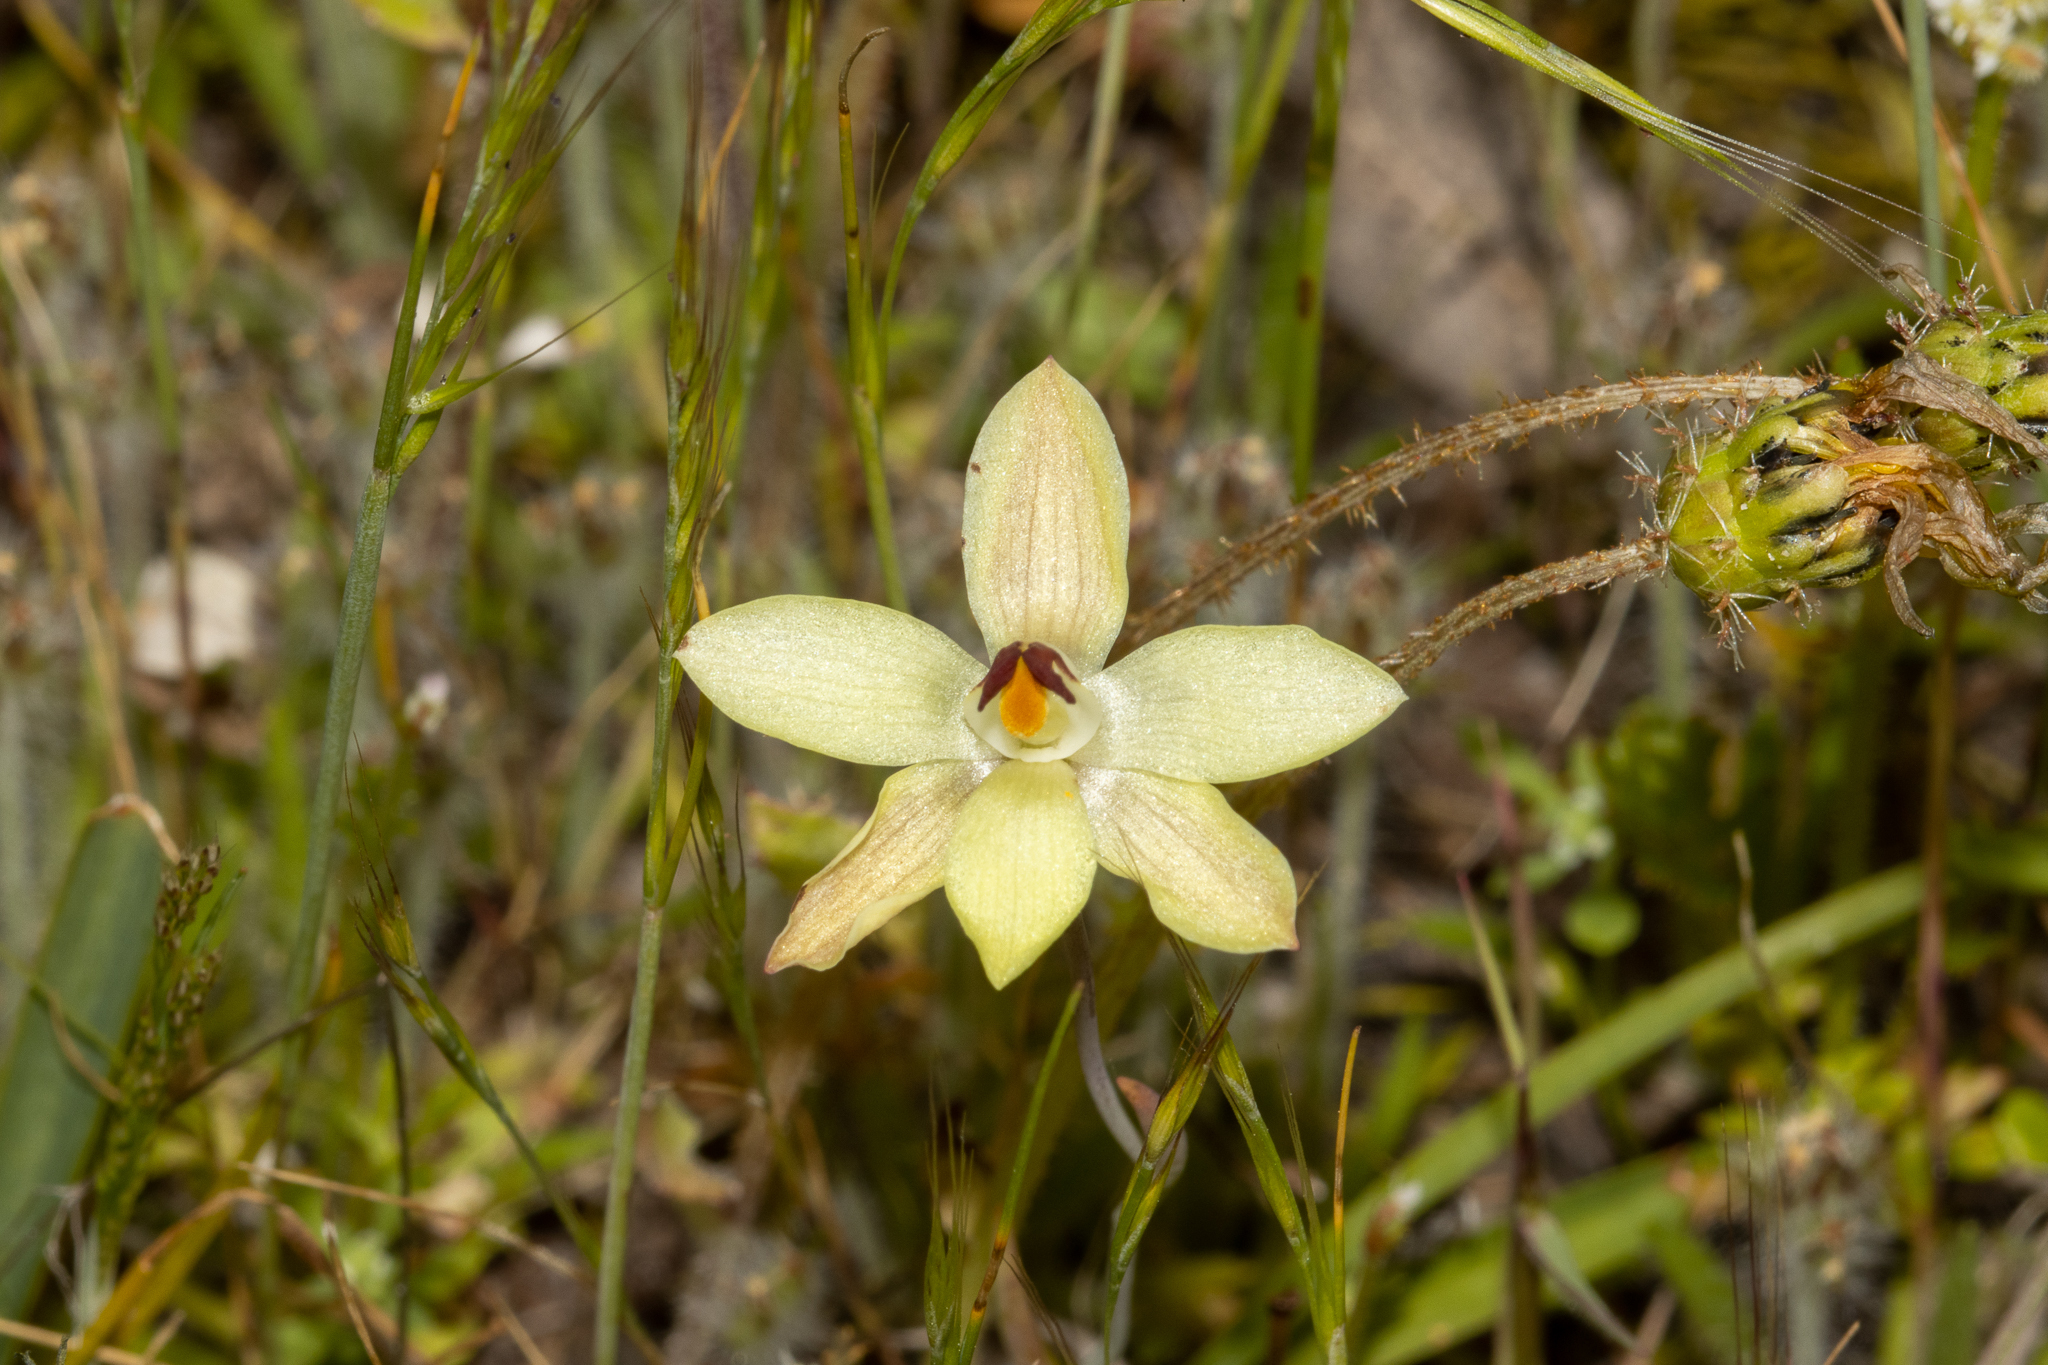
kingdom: Plantae
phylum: Tracheophyta
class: Liliopsida
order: Asparagales
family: Orchidaceae
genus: Thelymitra
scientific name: Thelymitra antennifera
